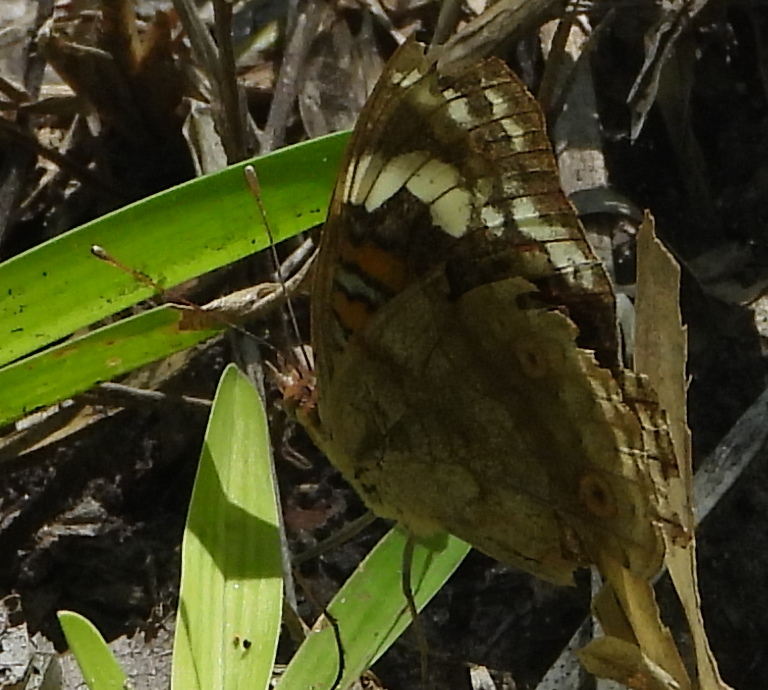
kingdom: Animalia
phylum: Arthropoda
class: Insecta
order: Lepidoptera
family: Nymphalidae
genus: Junonia
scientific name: Junonia oenone
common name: Dark blue pansy
